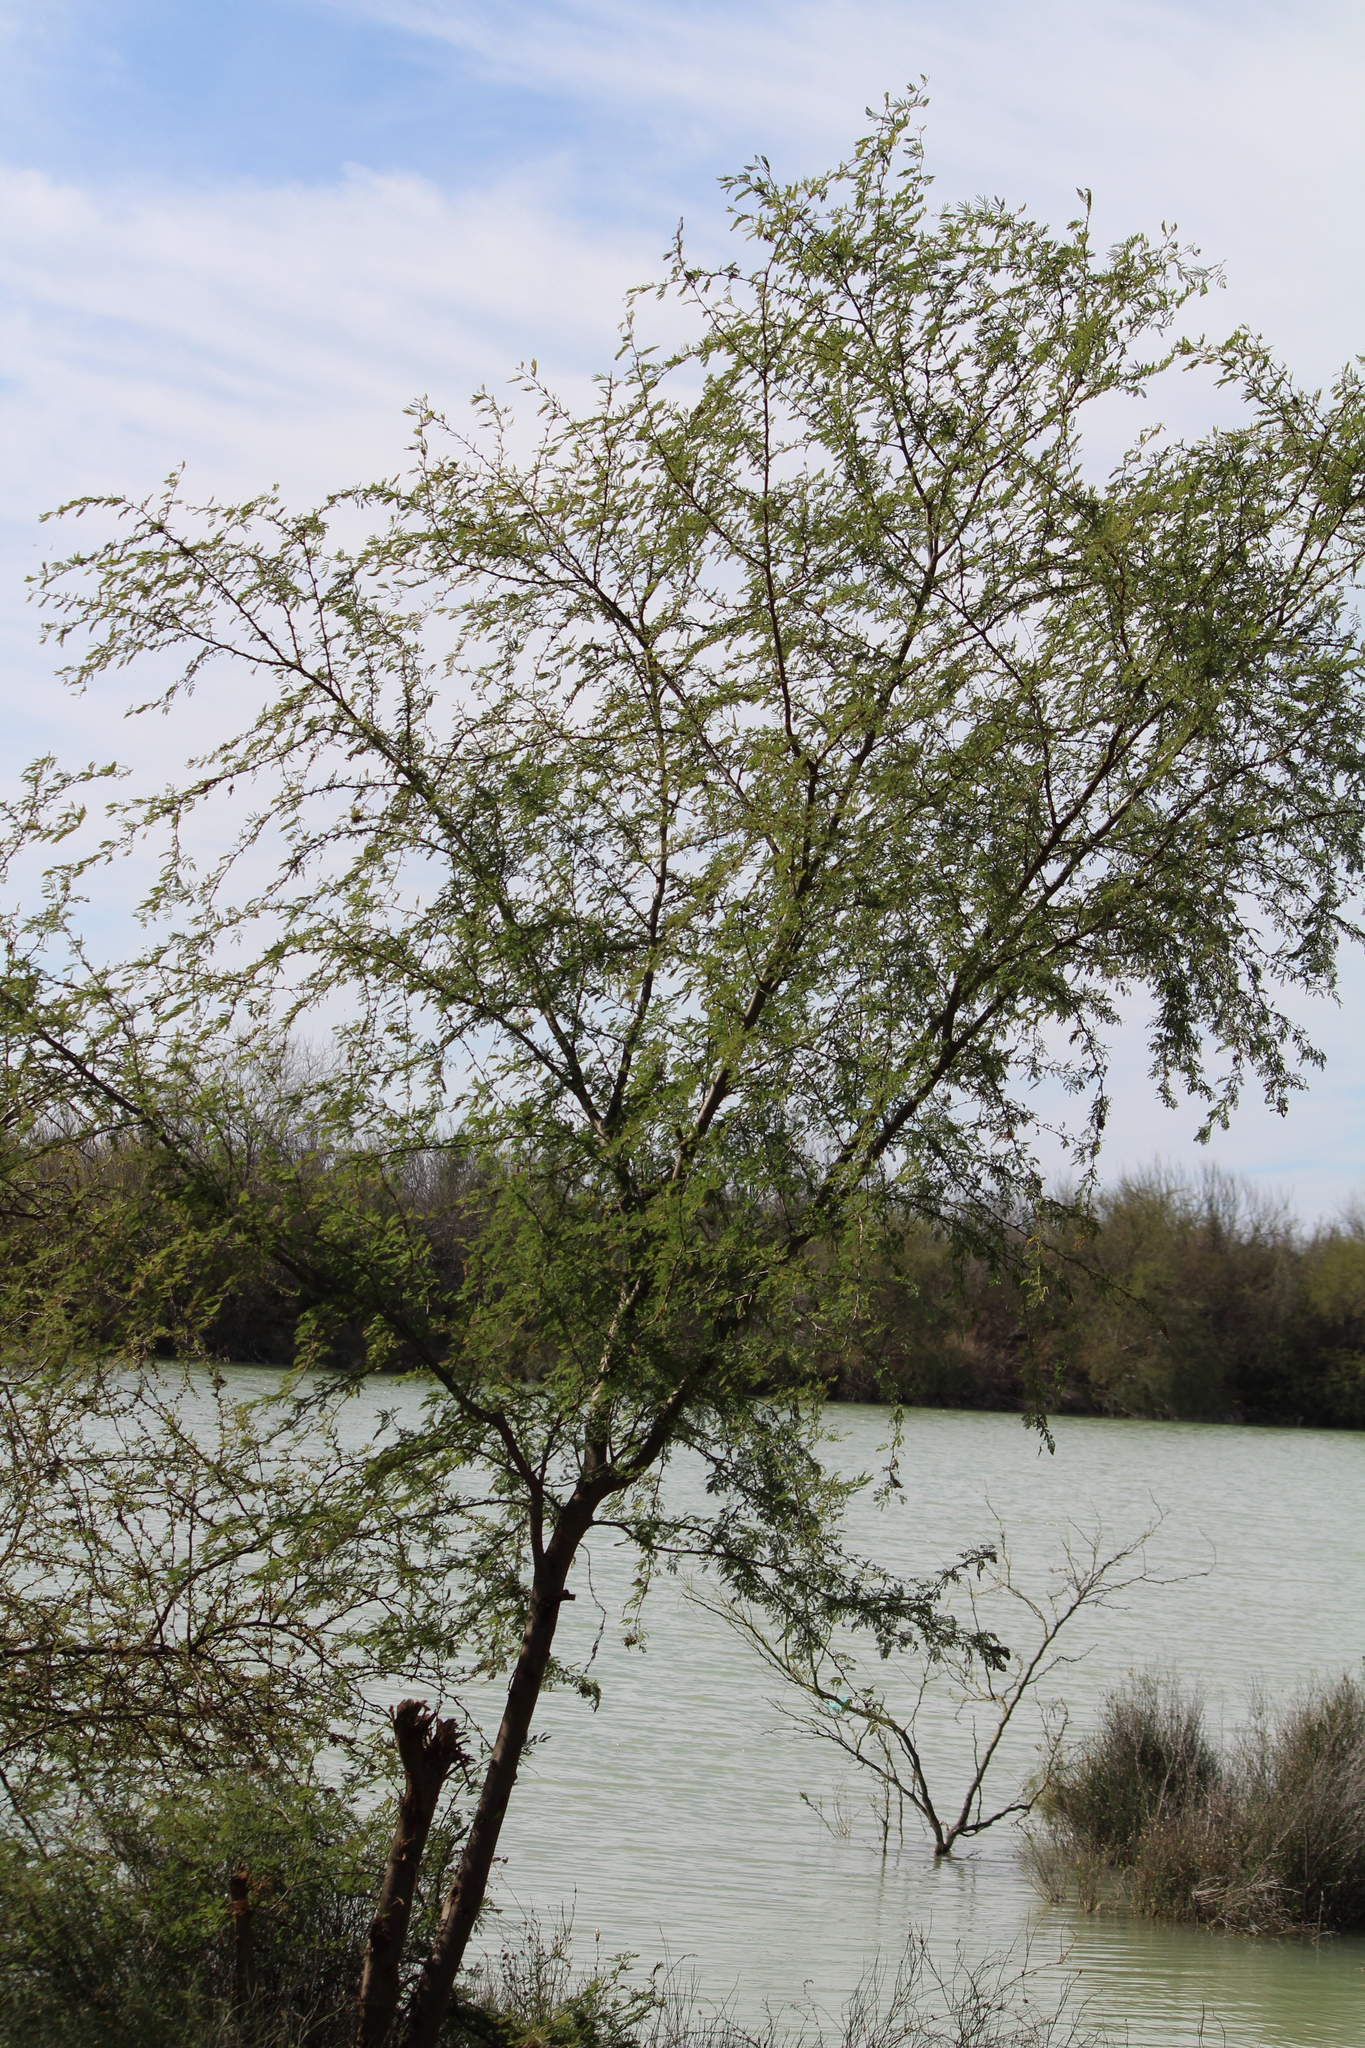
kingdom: Plantae
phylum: Tracheophyta
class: Magnoliopsida
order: Fabales
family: Fabaceae
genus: Vachellia
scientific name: Vachellia farnesiana
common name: Sweet acacia
